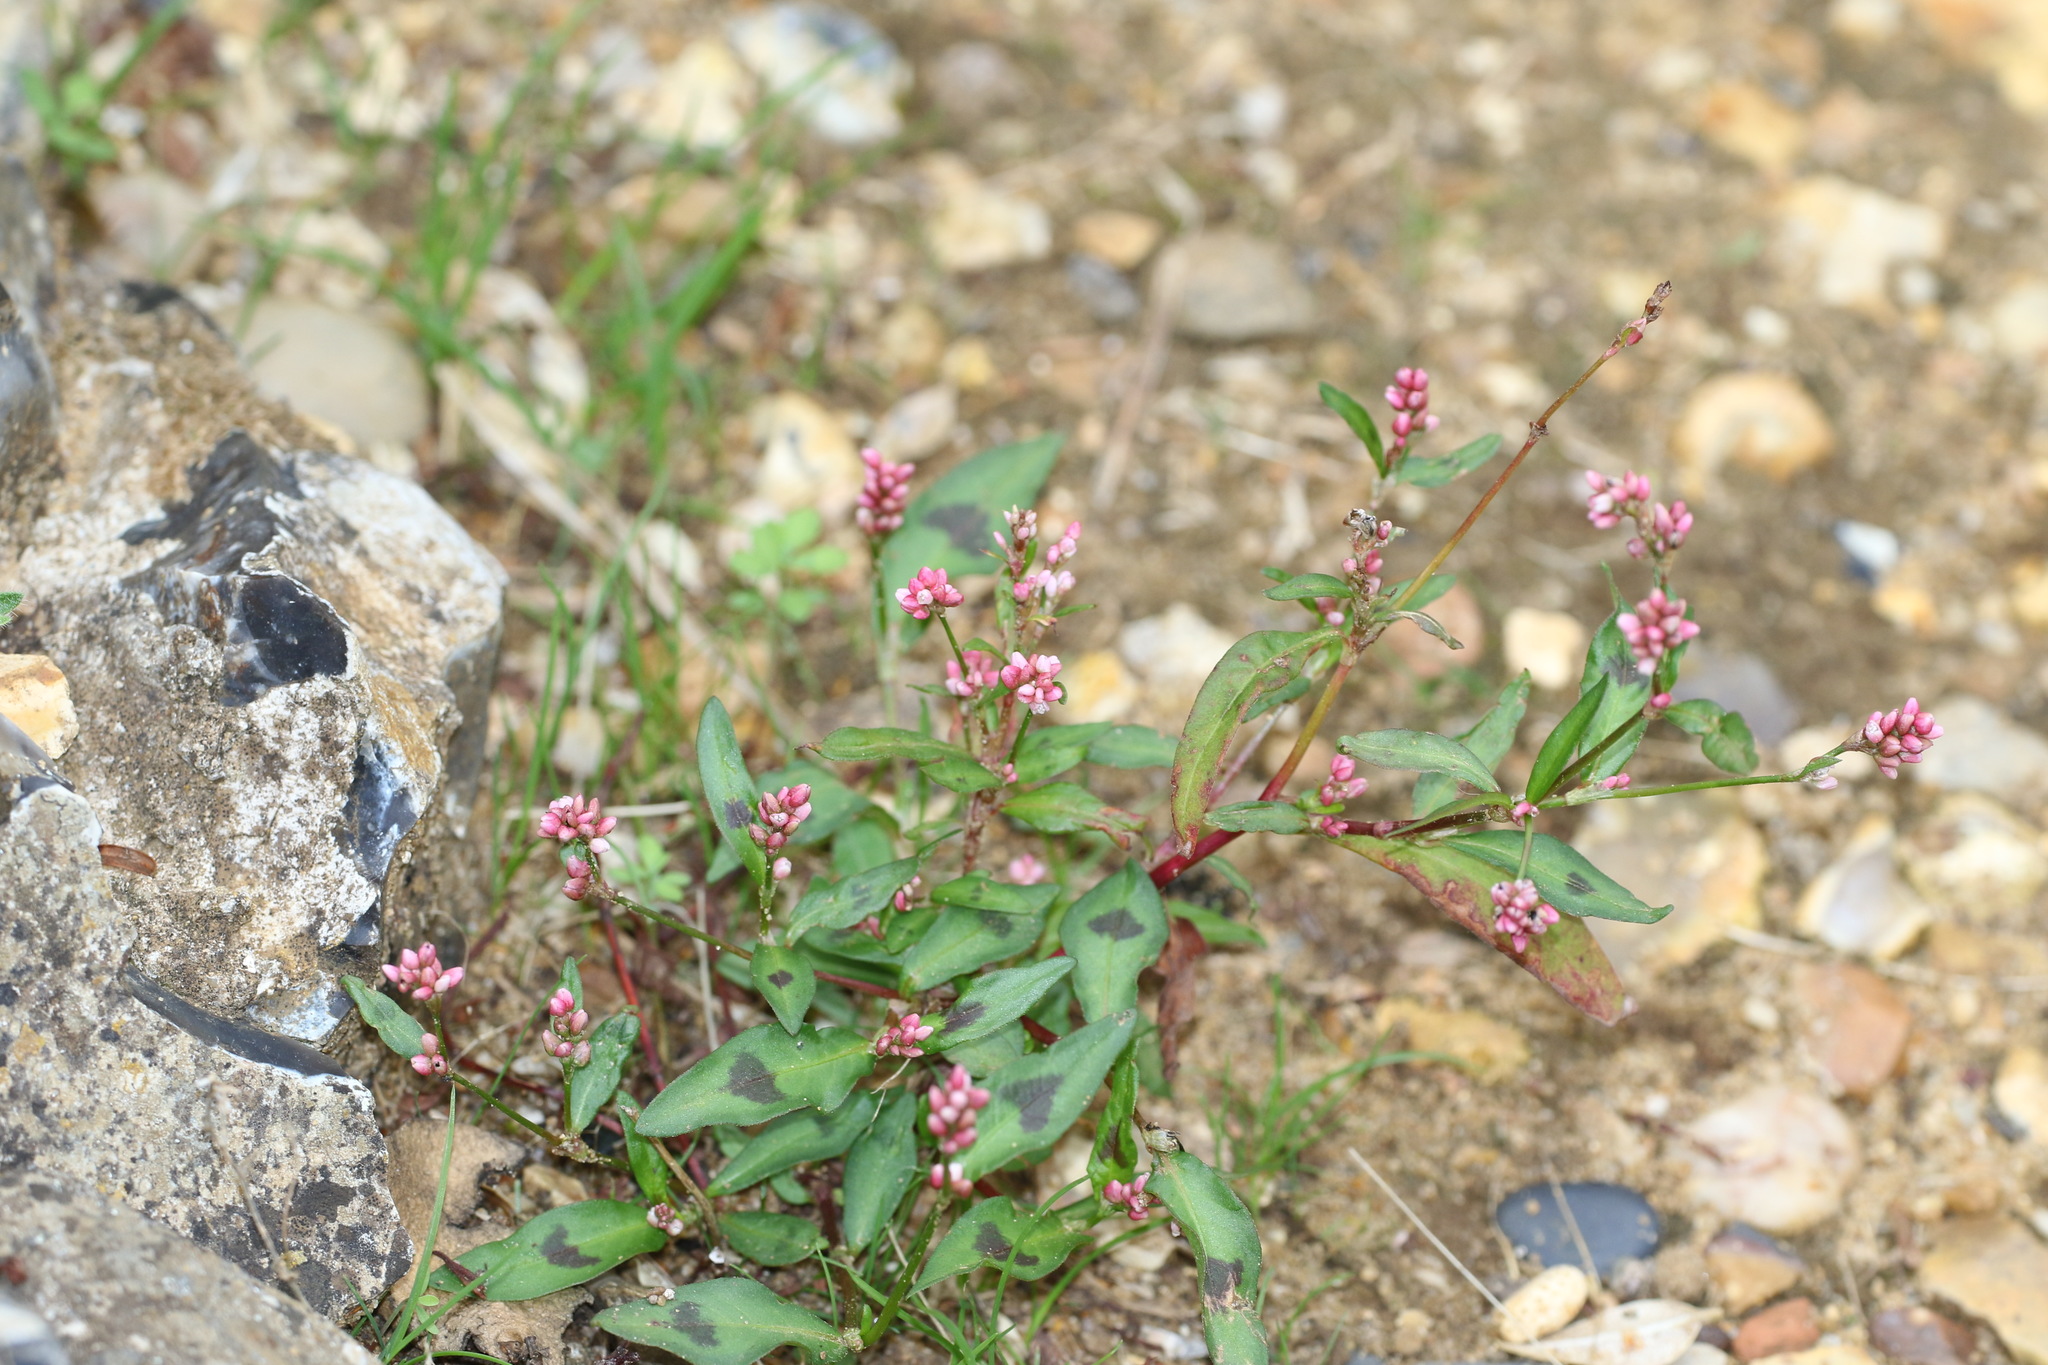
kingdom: Plantae
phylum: Tracheophyta
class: Magnoliopsida
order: Caryophyllales
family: Polygonaceae
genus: Persicaria
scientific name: Persicaria maculosa
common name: Redshank
